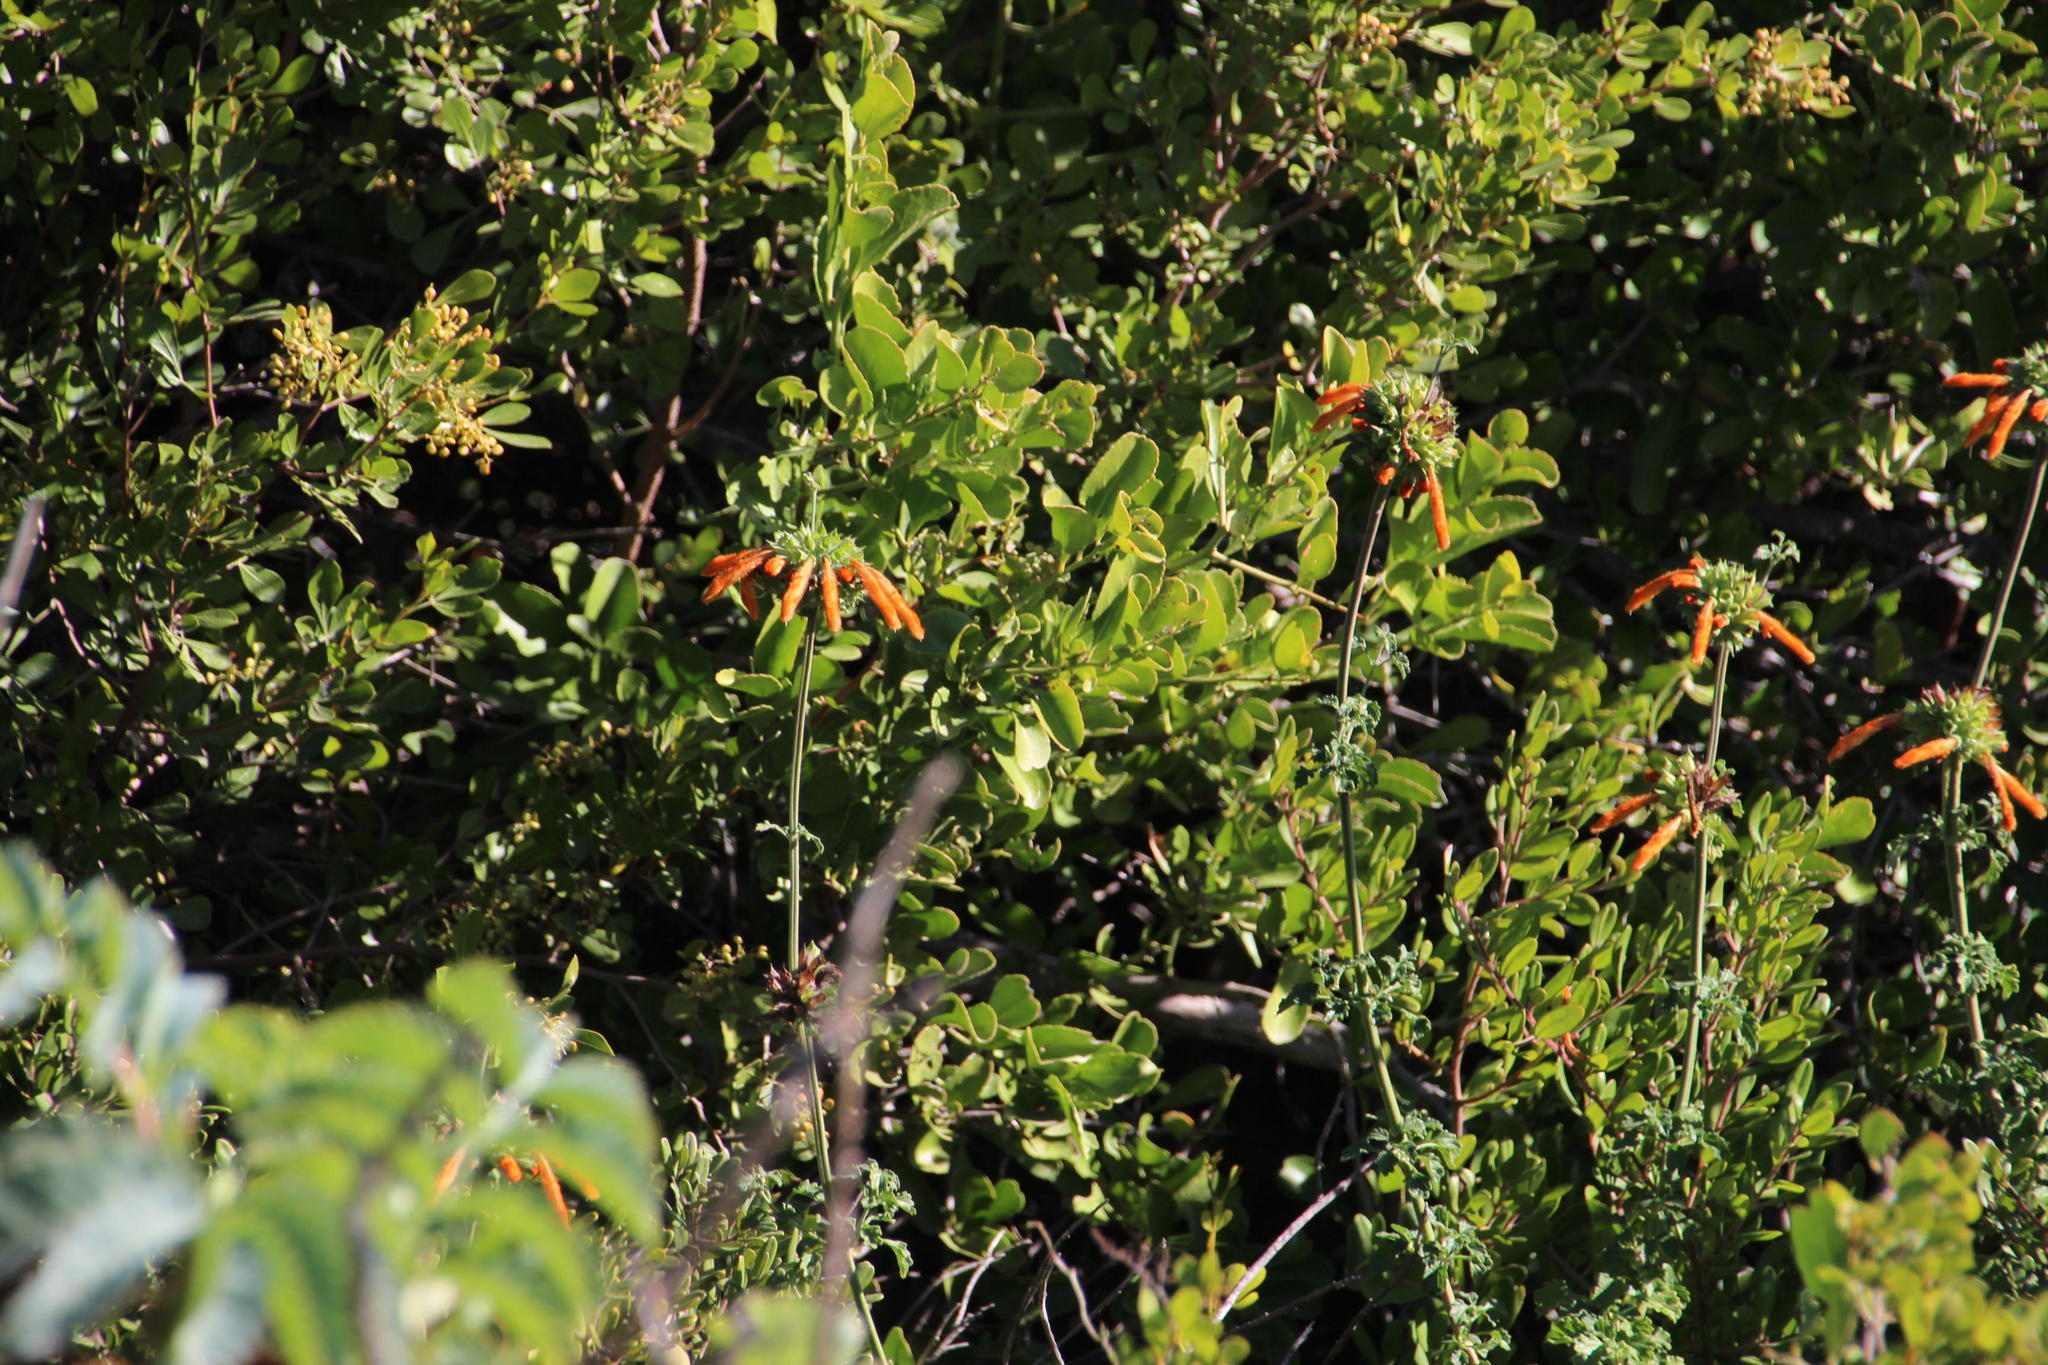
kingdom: Plantae
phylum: Tracheophyta
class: Magnoliopsida
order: Lamiales
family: Lamiaceae
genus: Leonotis
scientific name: Leonotis ocymifolia
